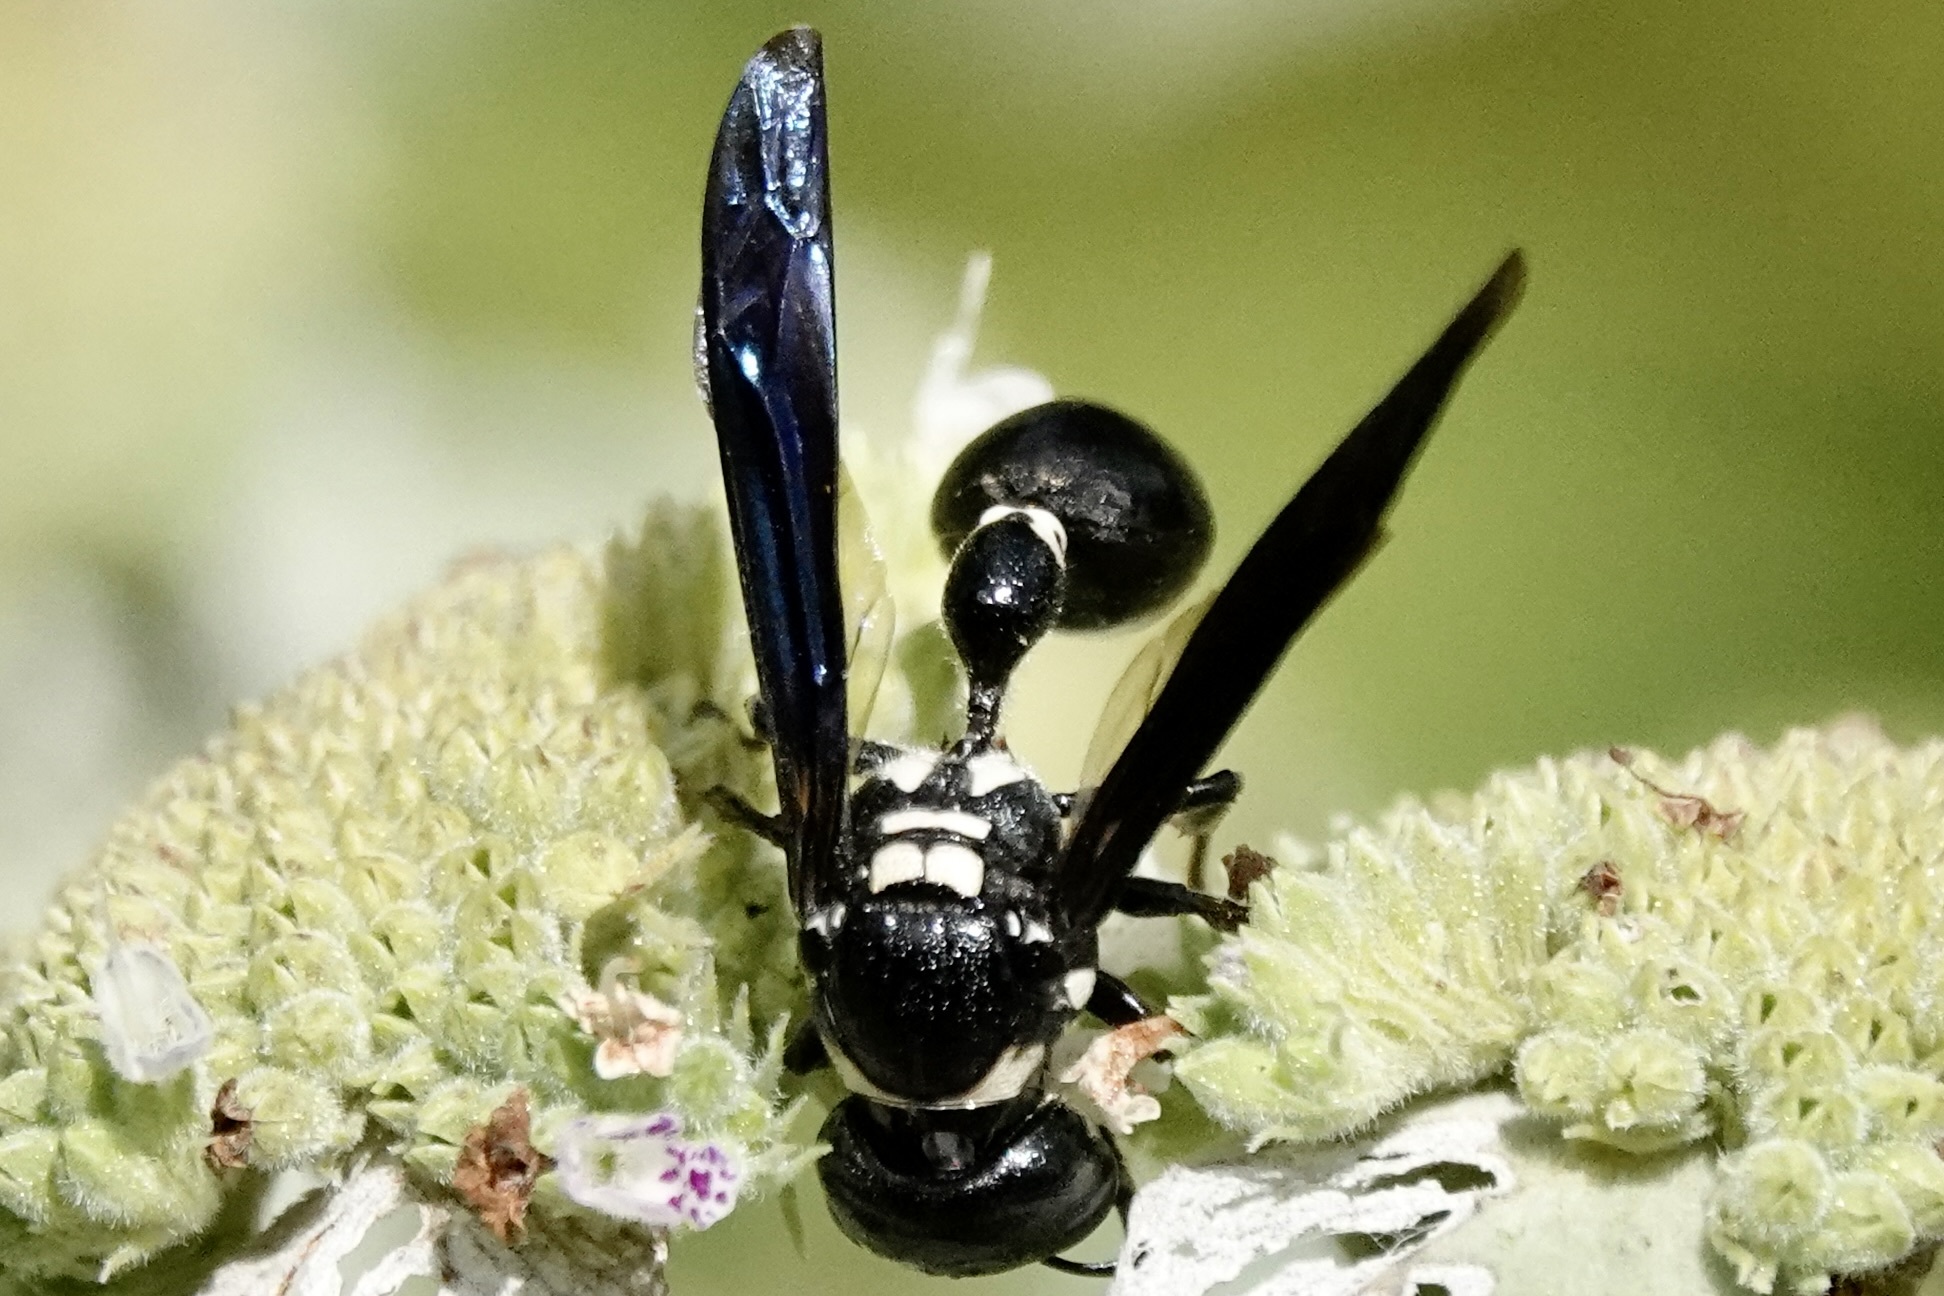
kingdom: Animalia
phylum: Arthropoda
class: Insecta
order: Hymenoptera
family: Eumenidae
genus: Zethus
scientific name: Zethus spinipes
